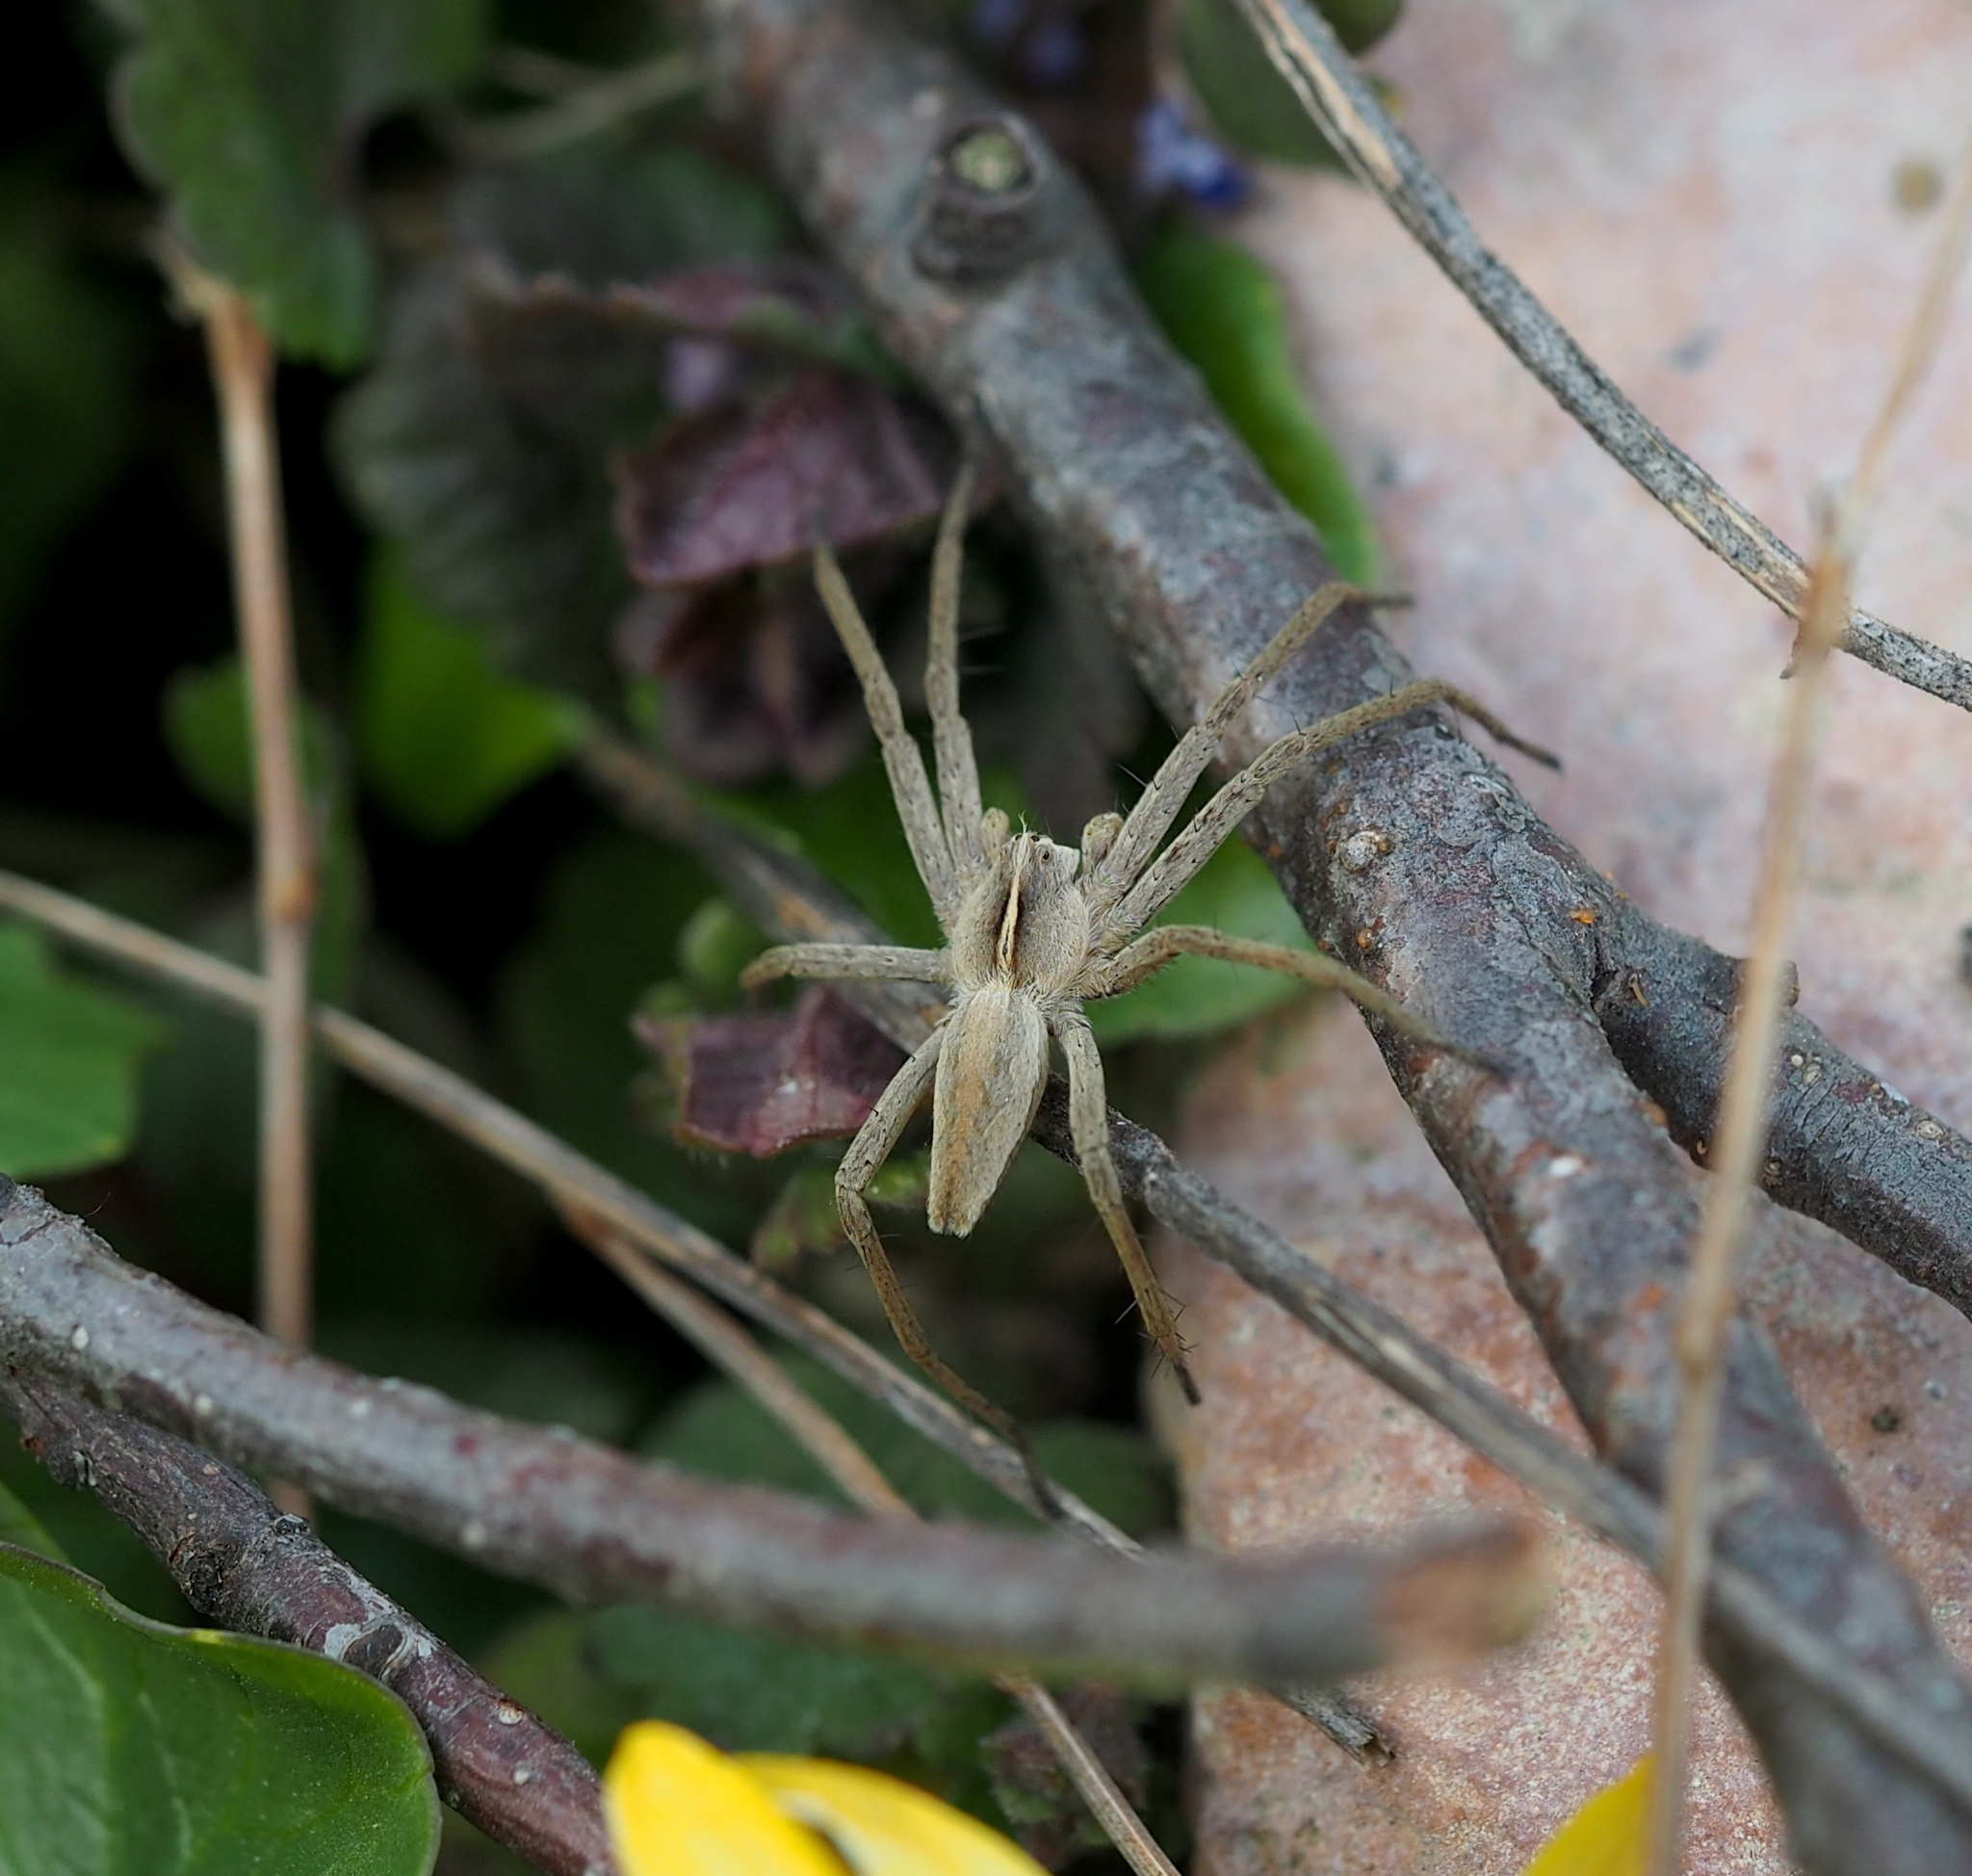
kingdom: Animalia
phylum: Arthropoda
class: Arachnida
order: Araneae
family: Pisauridae
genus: Pisaura
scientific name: Pisaura mirabilis
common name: Tent spider
